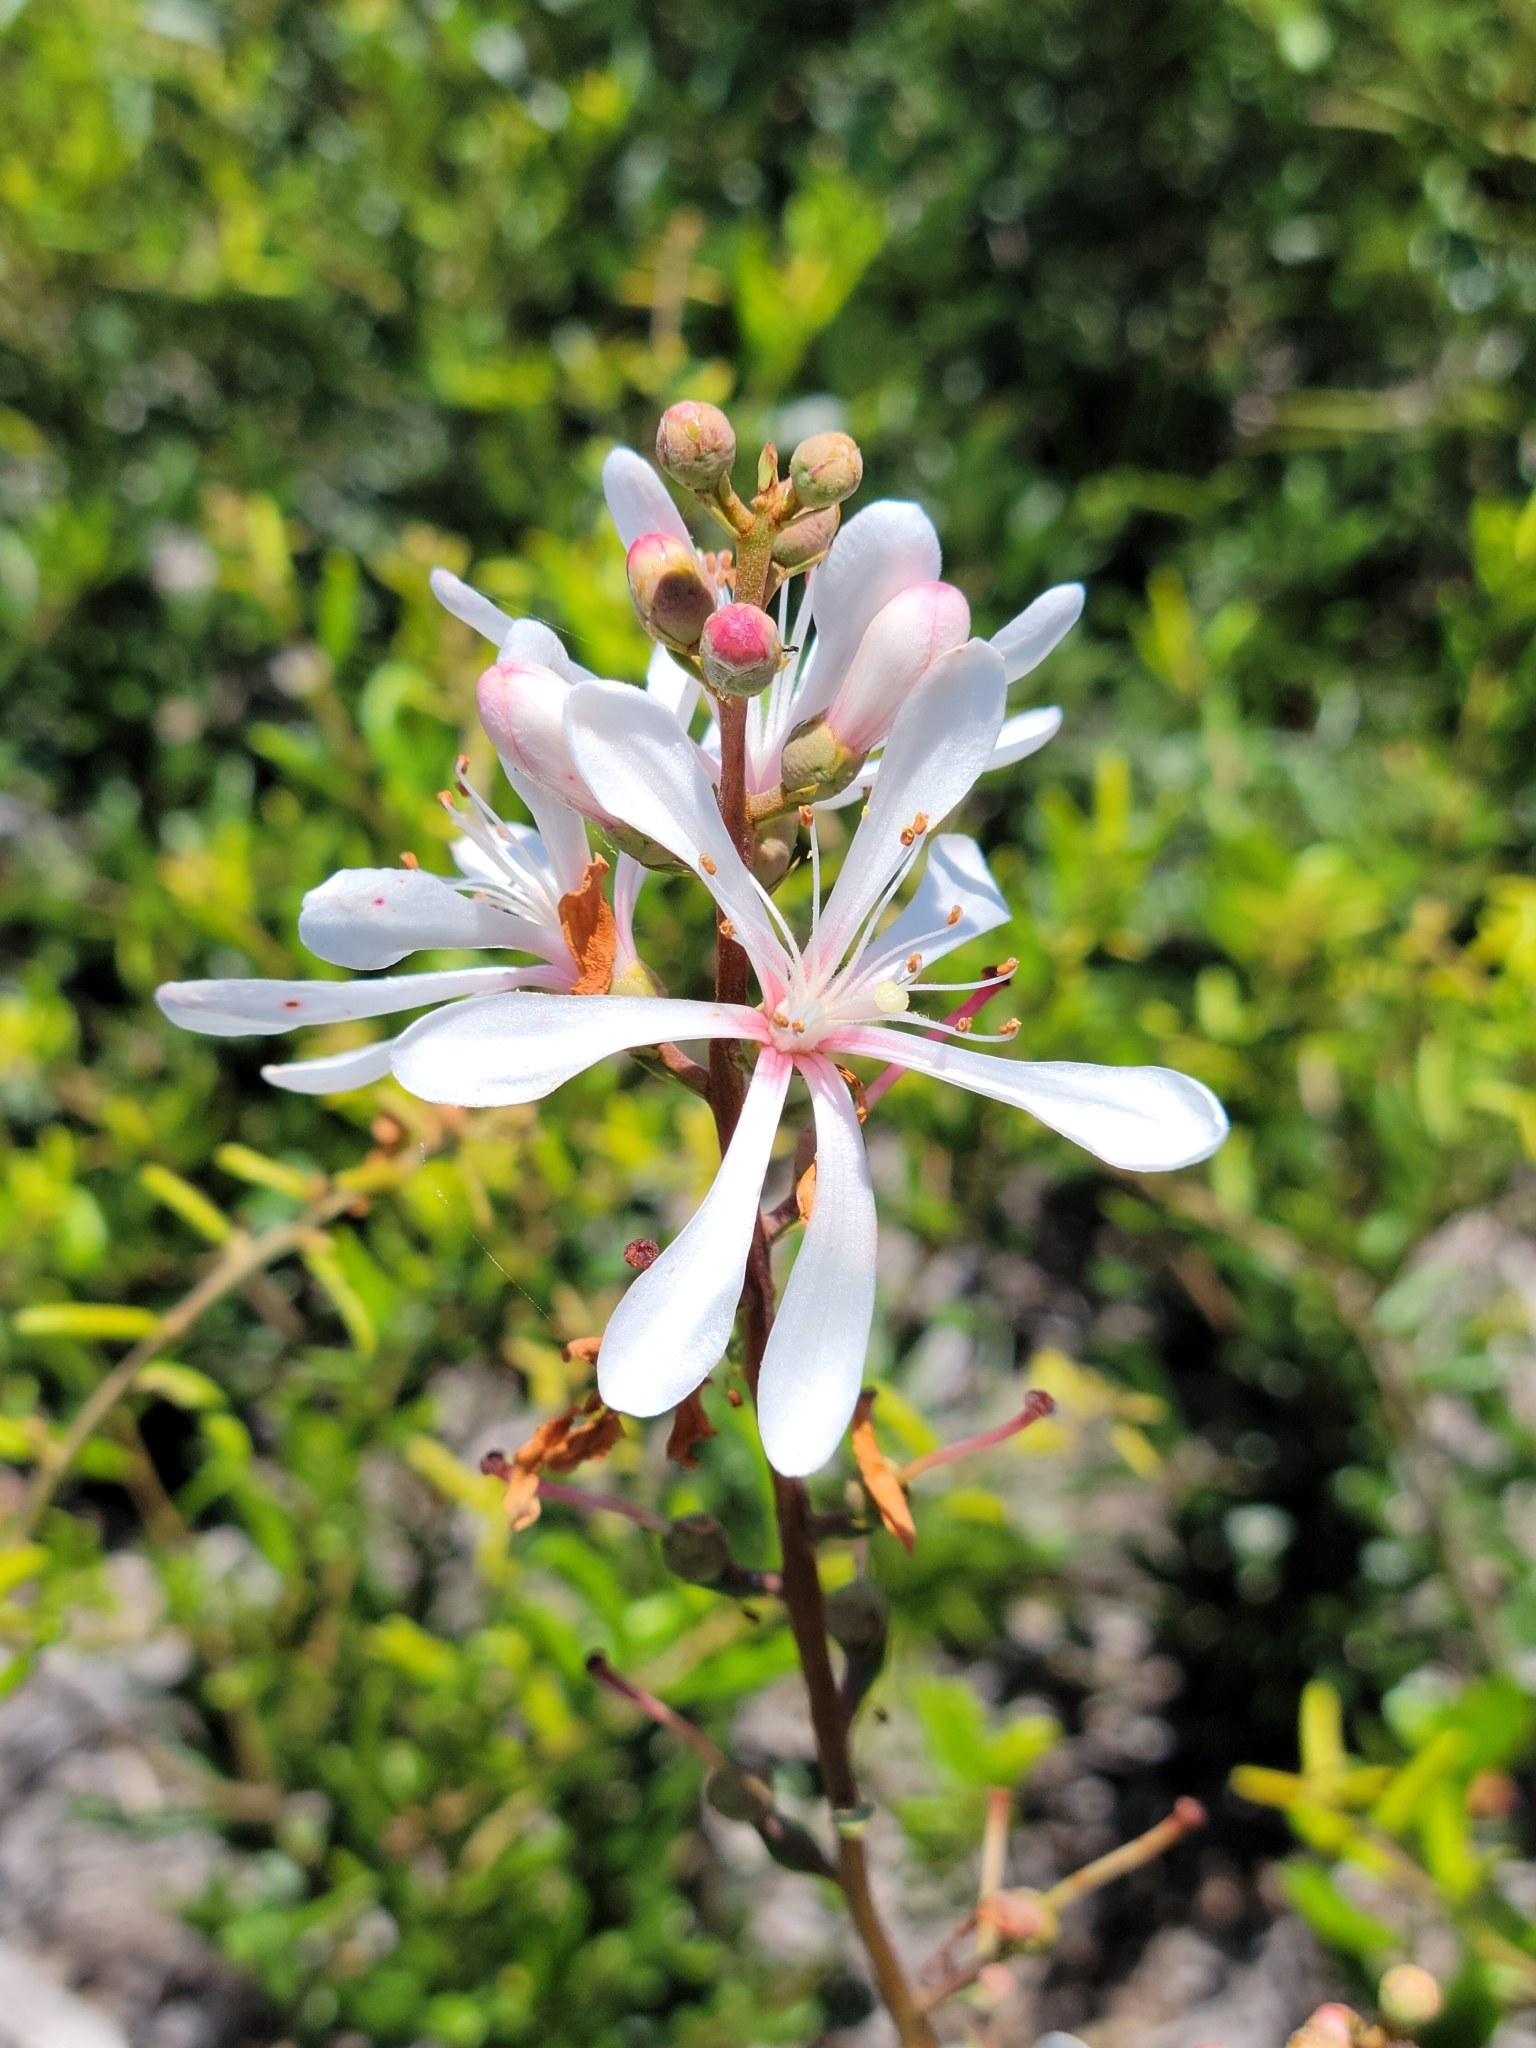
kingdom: Plantae
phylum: Tracheophyta
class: Magnoliopsida
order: Ericales
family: Ericaceae
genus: Bejaria
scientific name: Bejaria racemosa
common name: Tarflower
